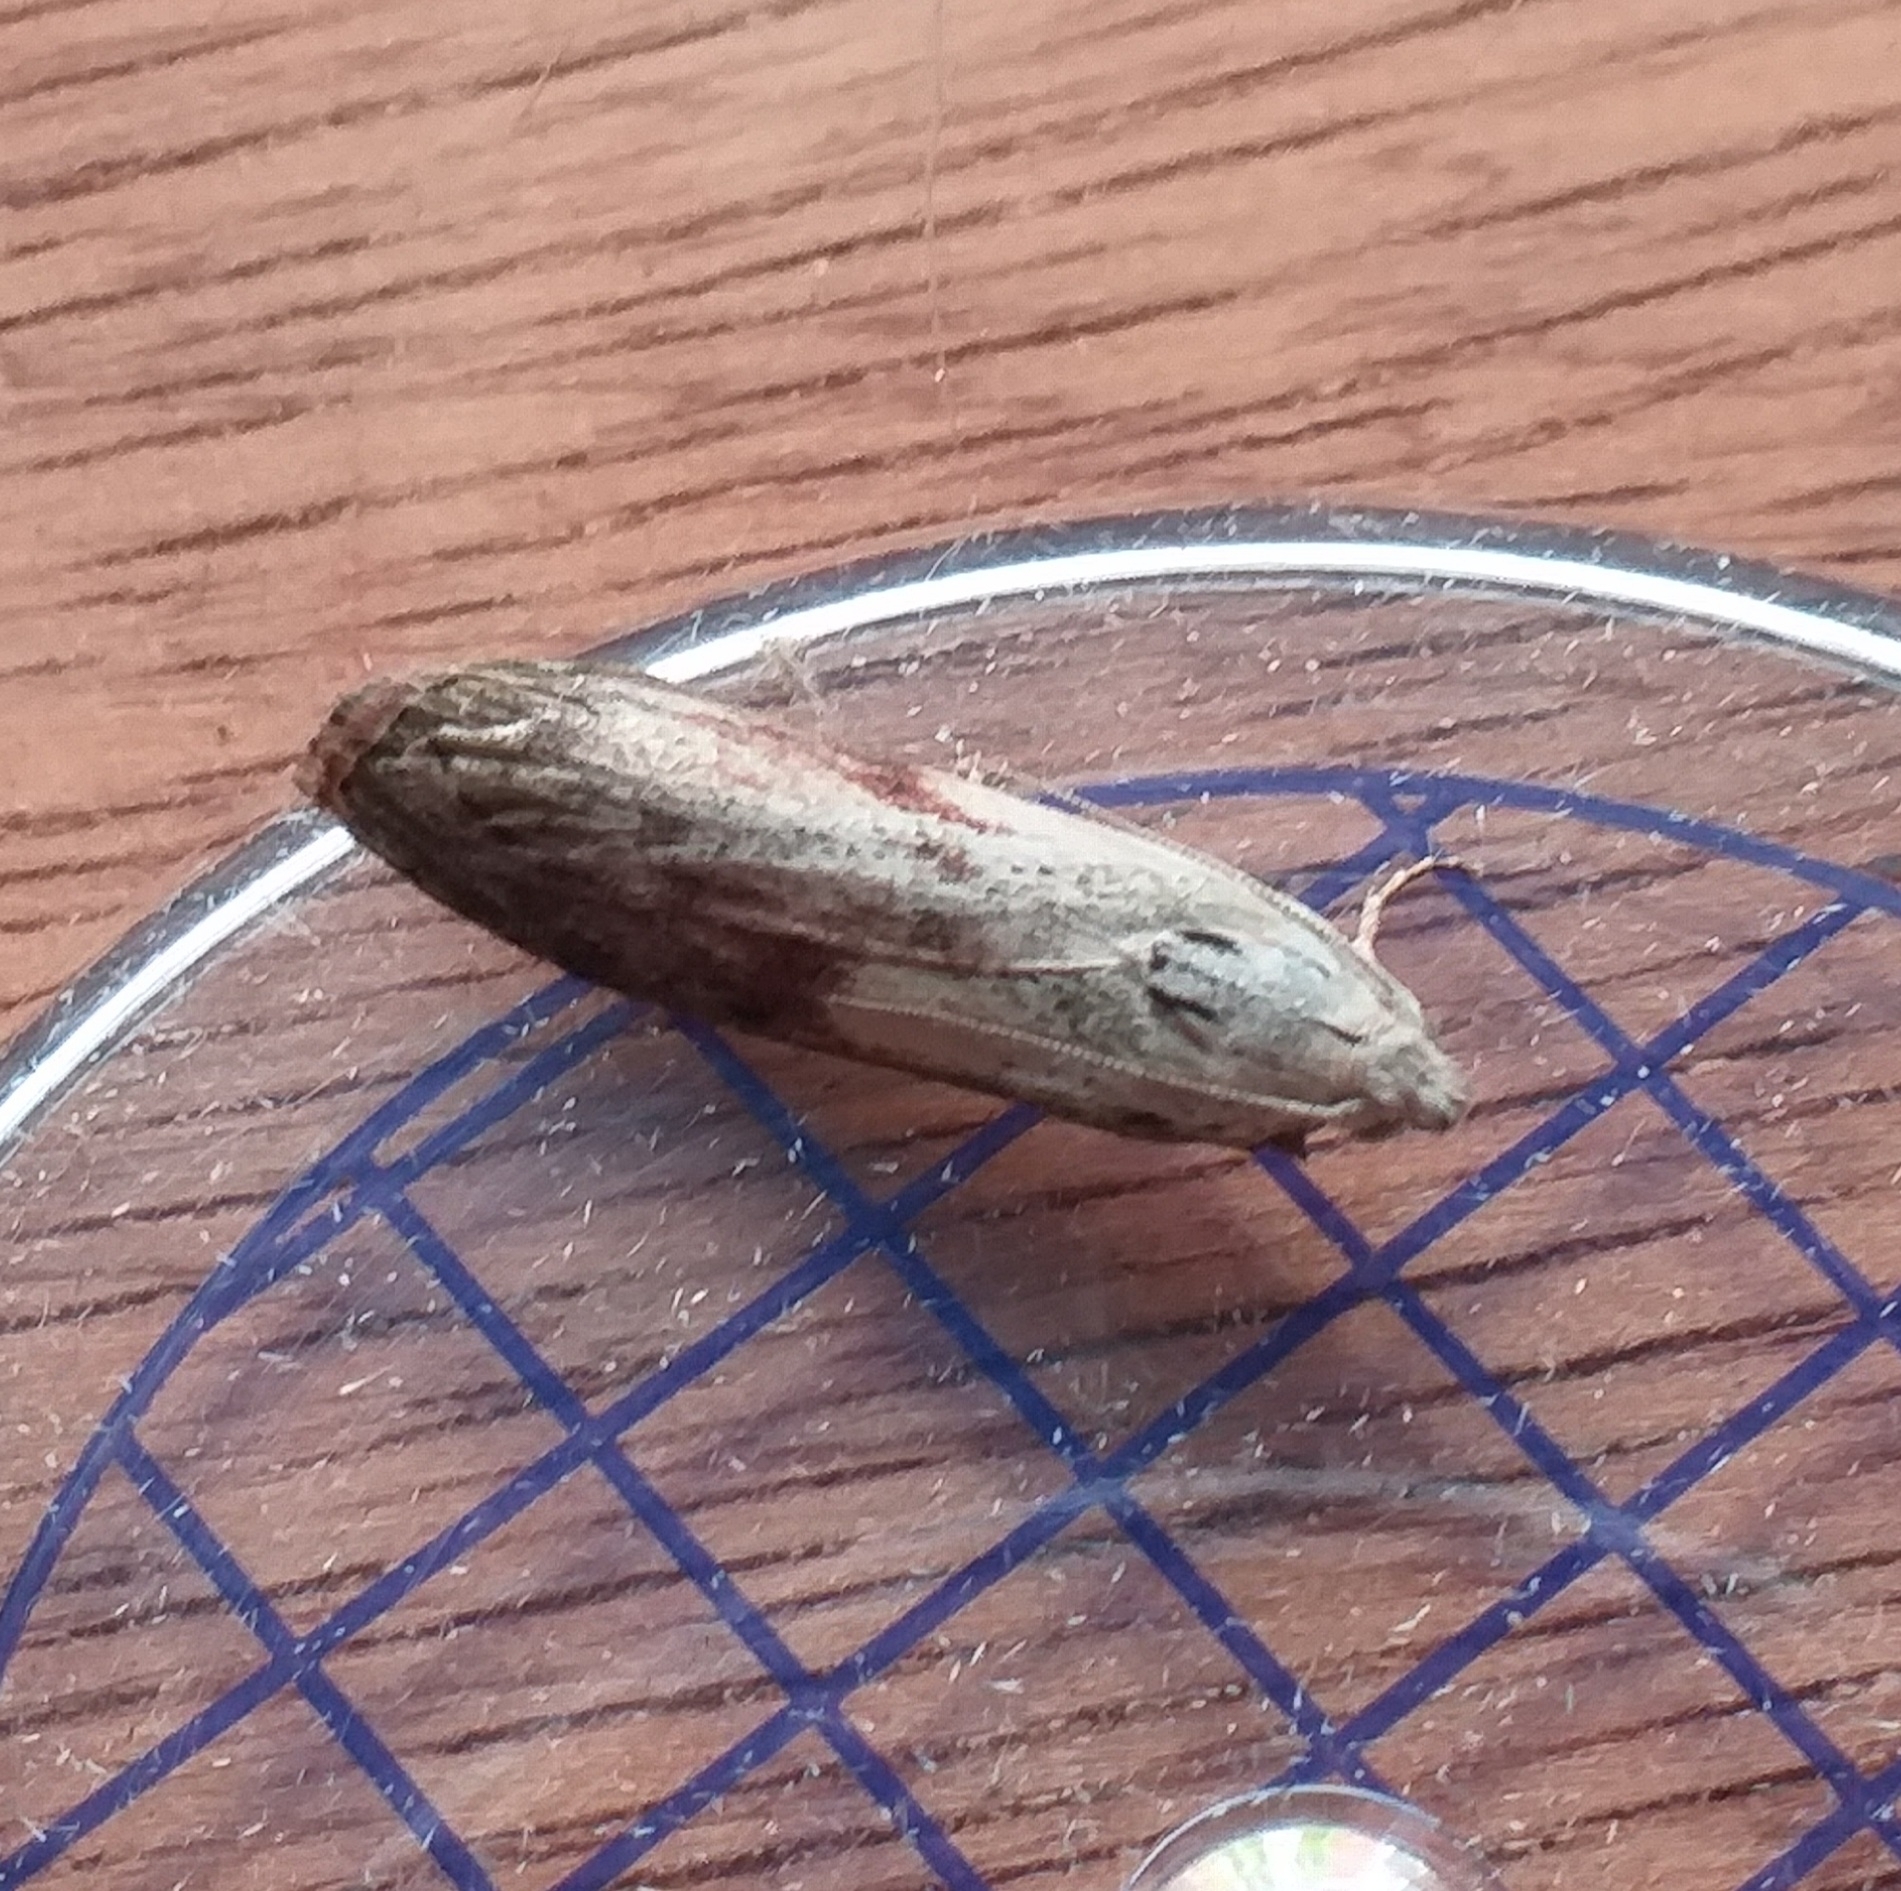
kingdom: Animalia
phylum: Arthropoda
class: Insecta
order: Lepidoptera
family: Pyralidae
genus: Aphomia
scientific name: Aphomia sociella
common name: Bee moth
